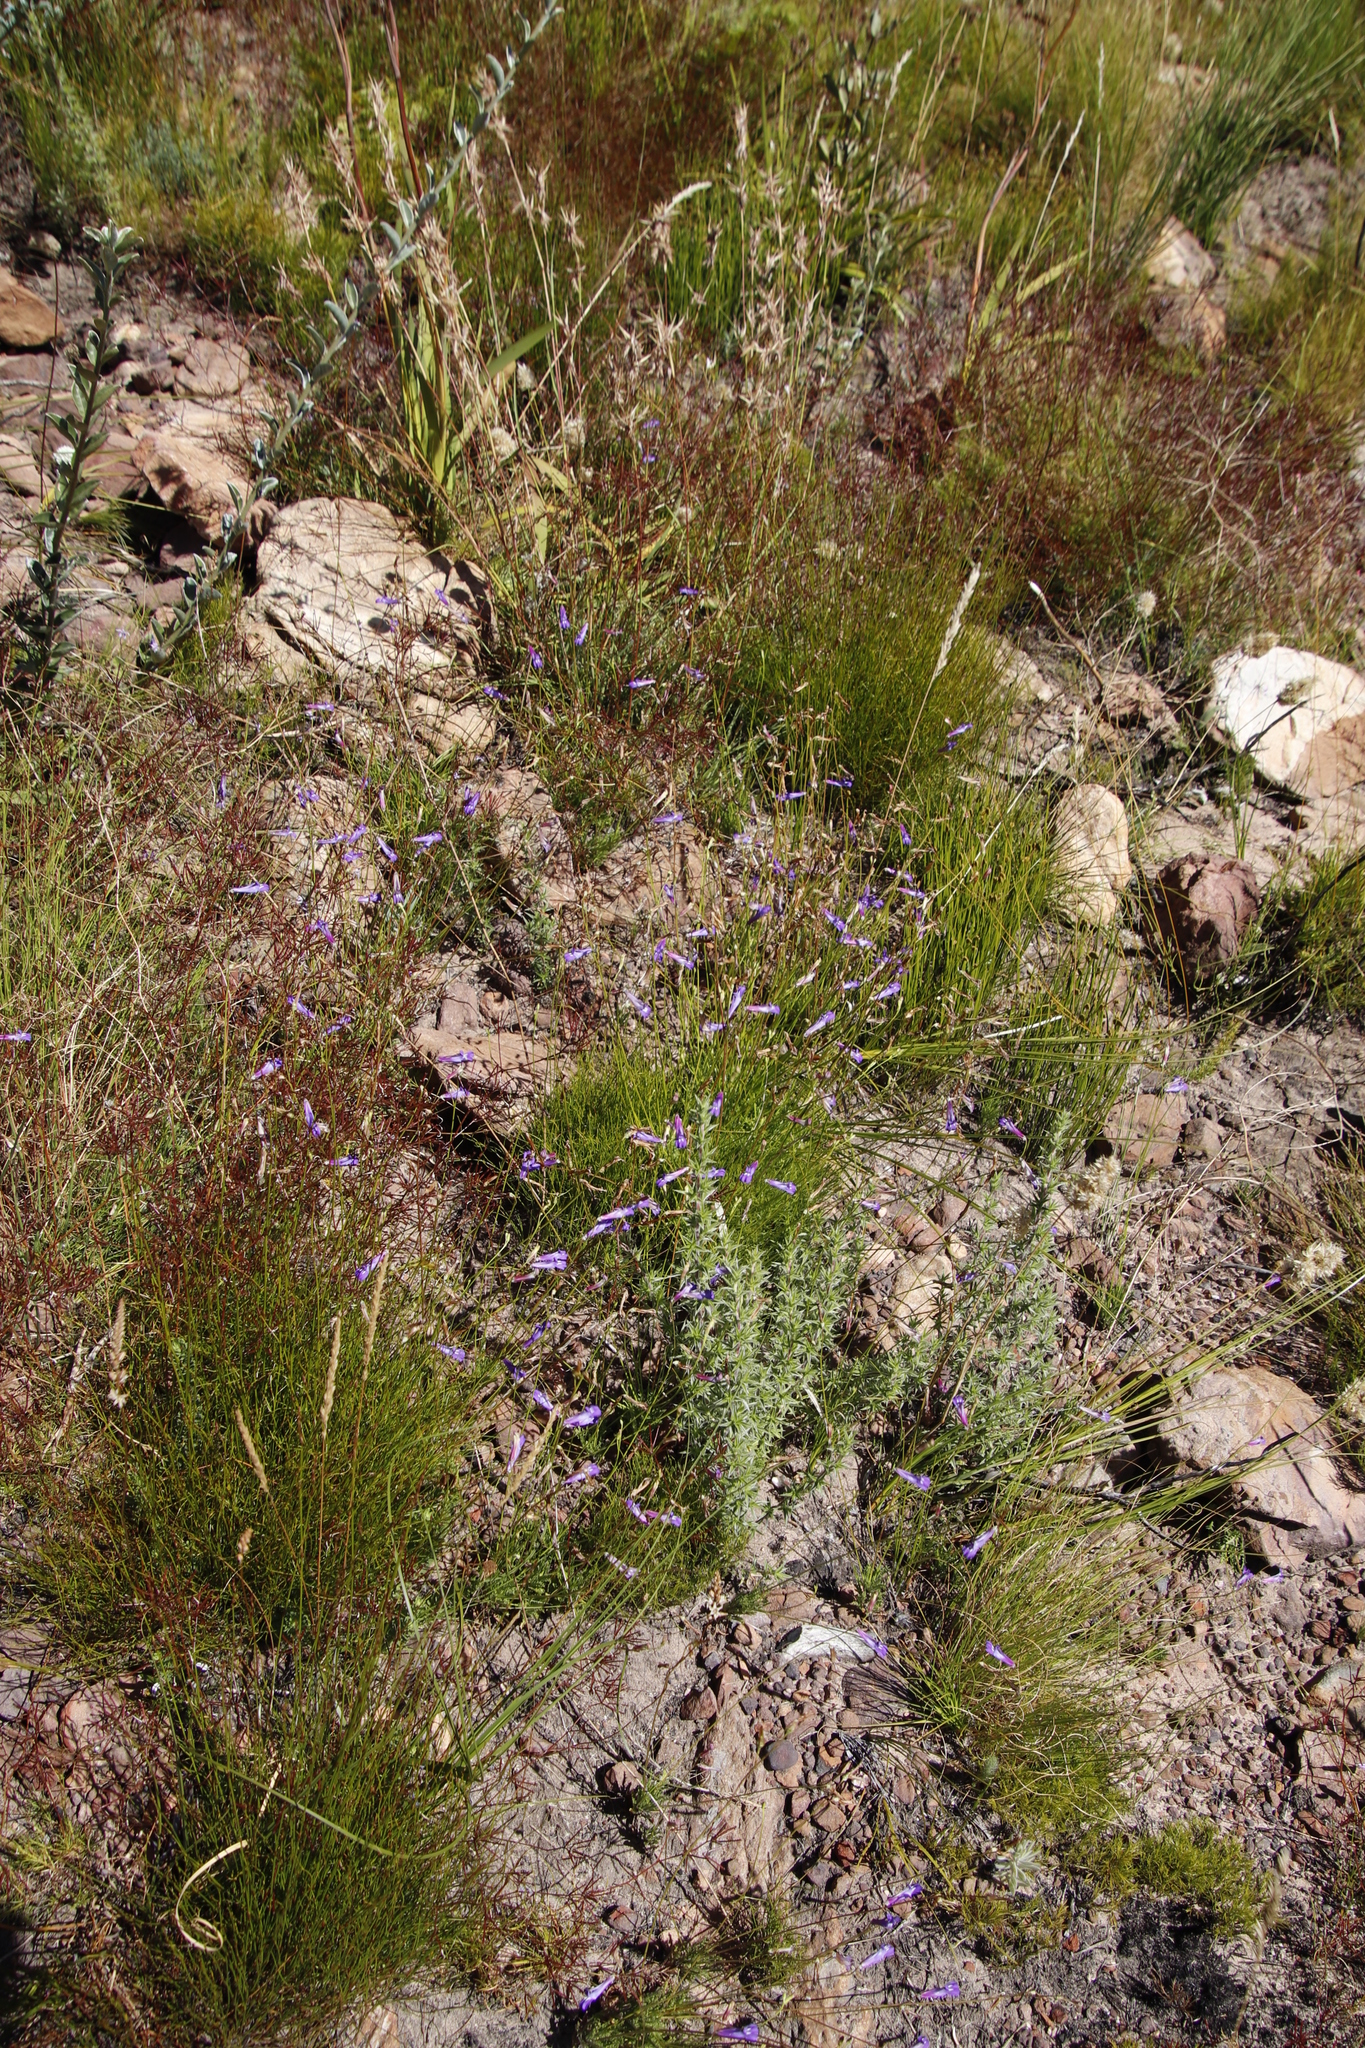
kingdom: Plantae
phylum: Tracheophyta
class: Magnoliopsida
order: Asterales
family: Campanulaceae
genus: Lobelia
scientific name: Lobelia coronopifolia
